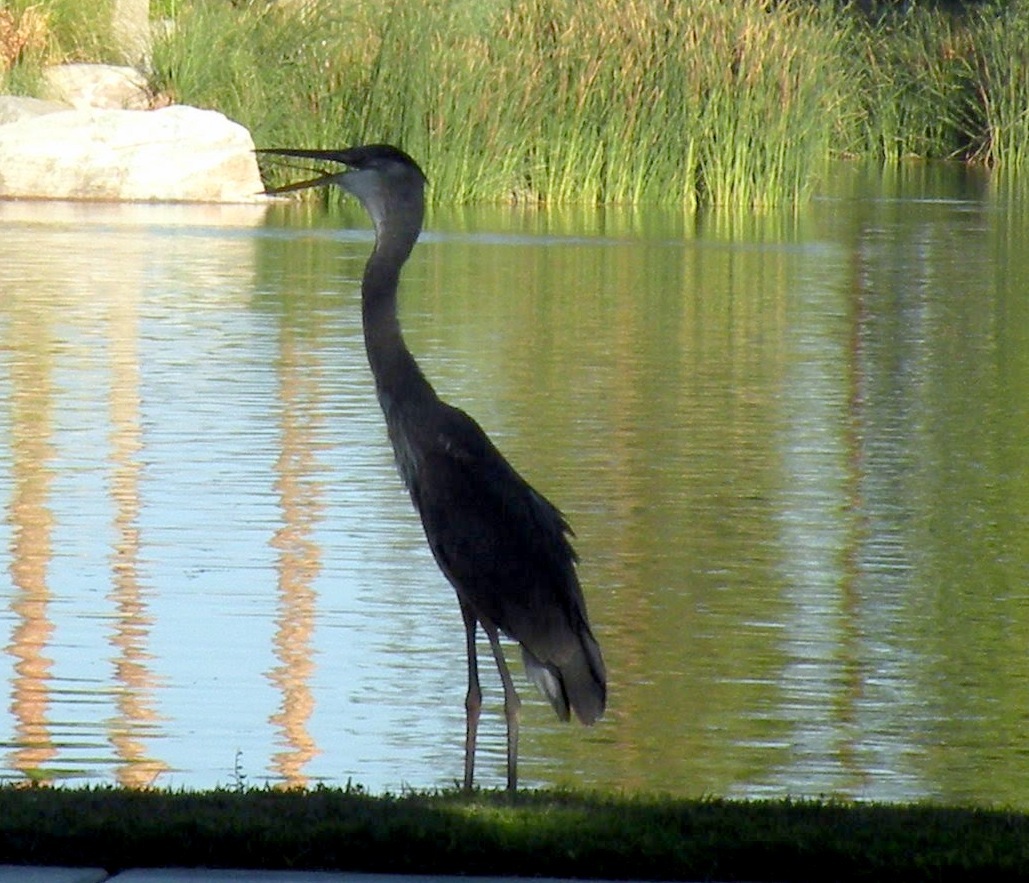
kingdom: Animalia
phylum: Chordata
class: Aves
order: Pelecaniformes
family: Ardeidae
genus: Ardea
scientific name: Ardea herodias
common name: Great blue heron
